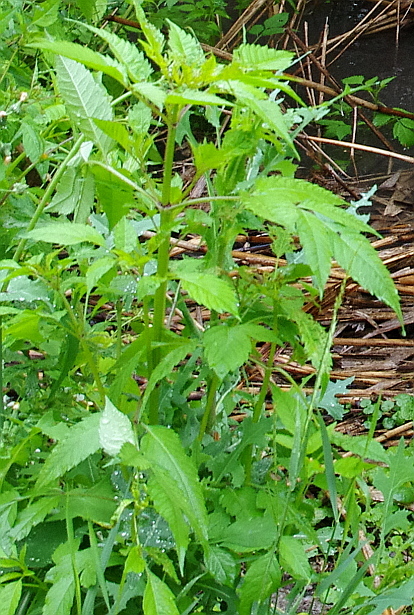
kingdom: Plantae
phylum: Tracheophyta
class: Magnoliopsida
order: Asterales
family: Asteraceae
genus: Bidens
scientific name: Bidens frondosa
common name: Beggarticks
